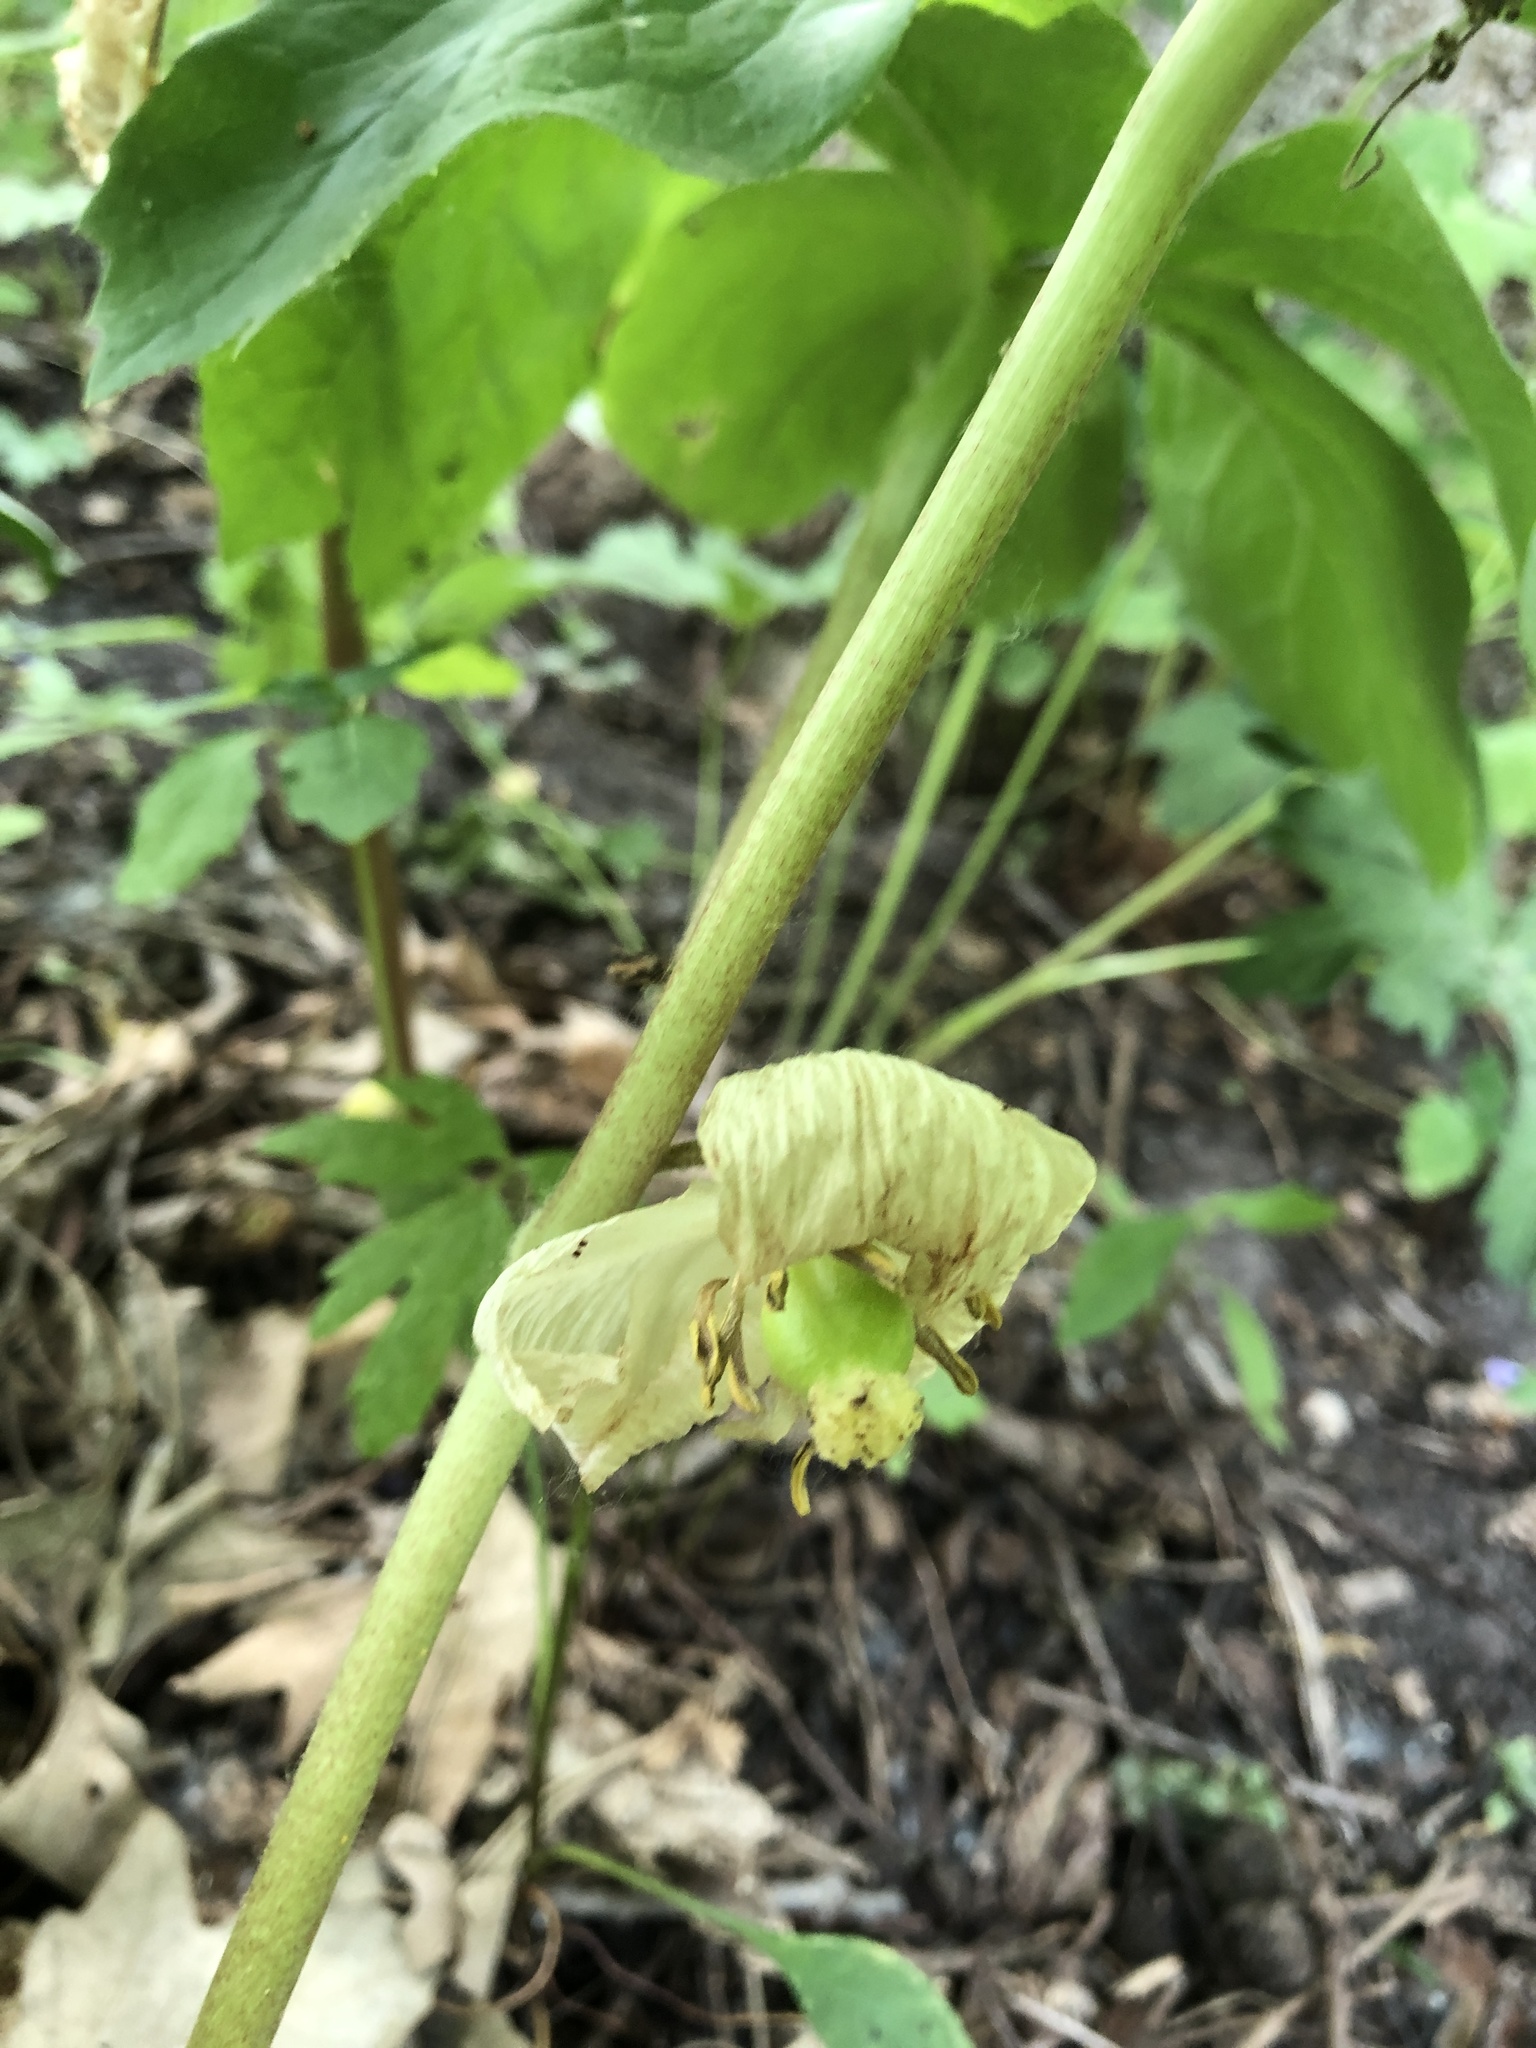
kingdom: Plantae
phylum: Tracheophyta
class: Magnoliopsida
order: Ranunculales
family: Berberidaceae
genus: Podophyllum
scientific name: Podophyllum peltatum
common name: Wild mandrake
